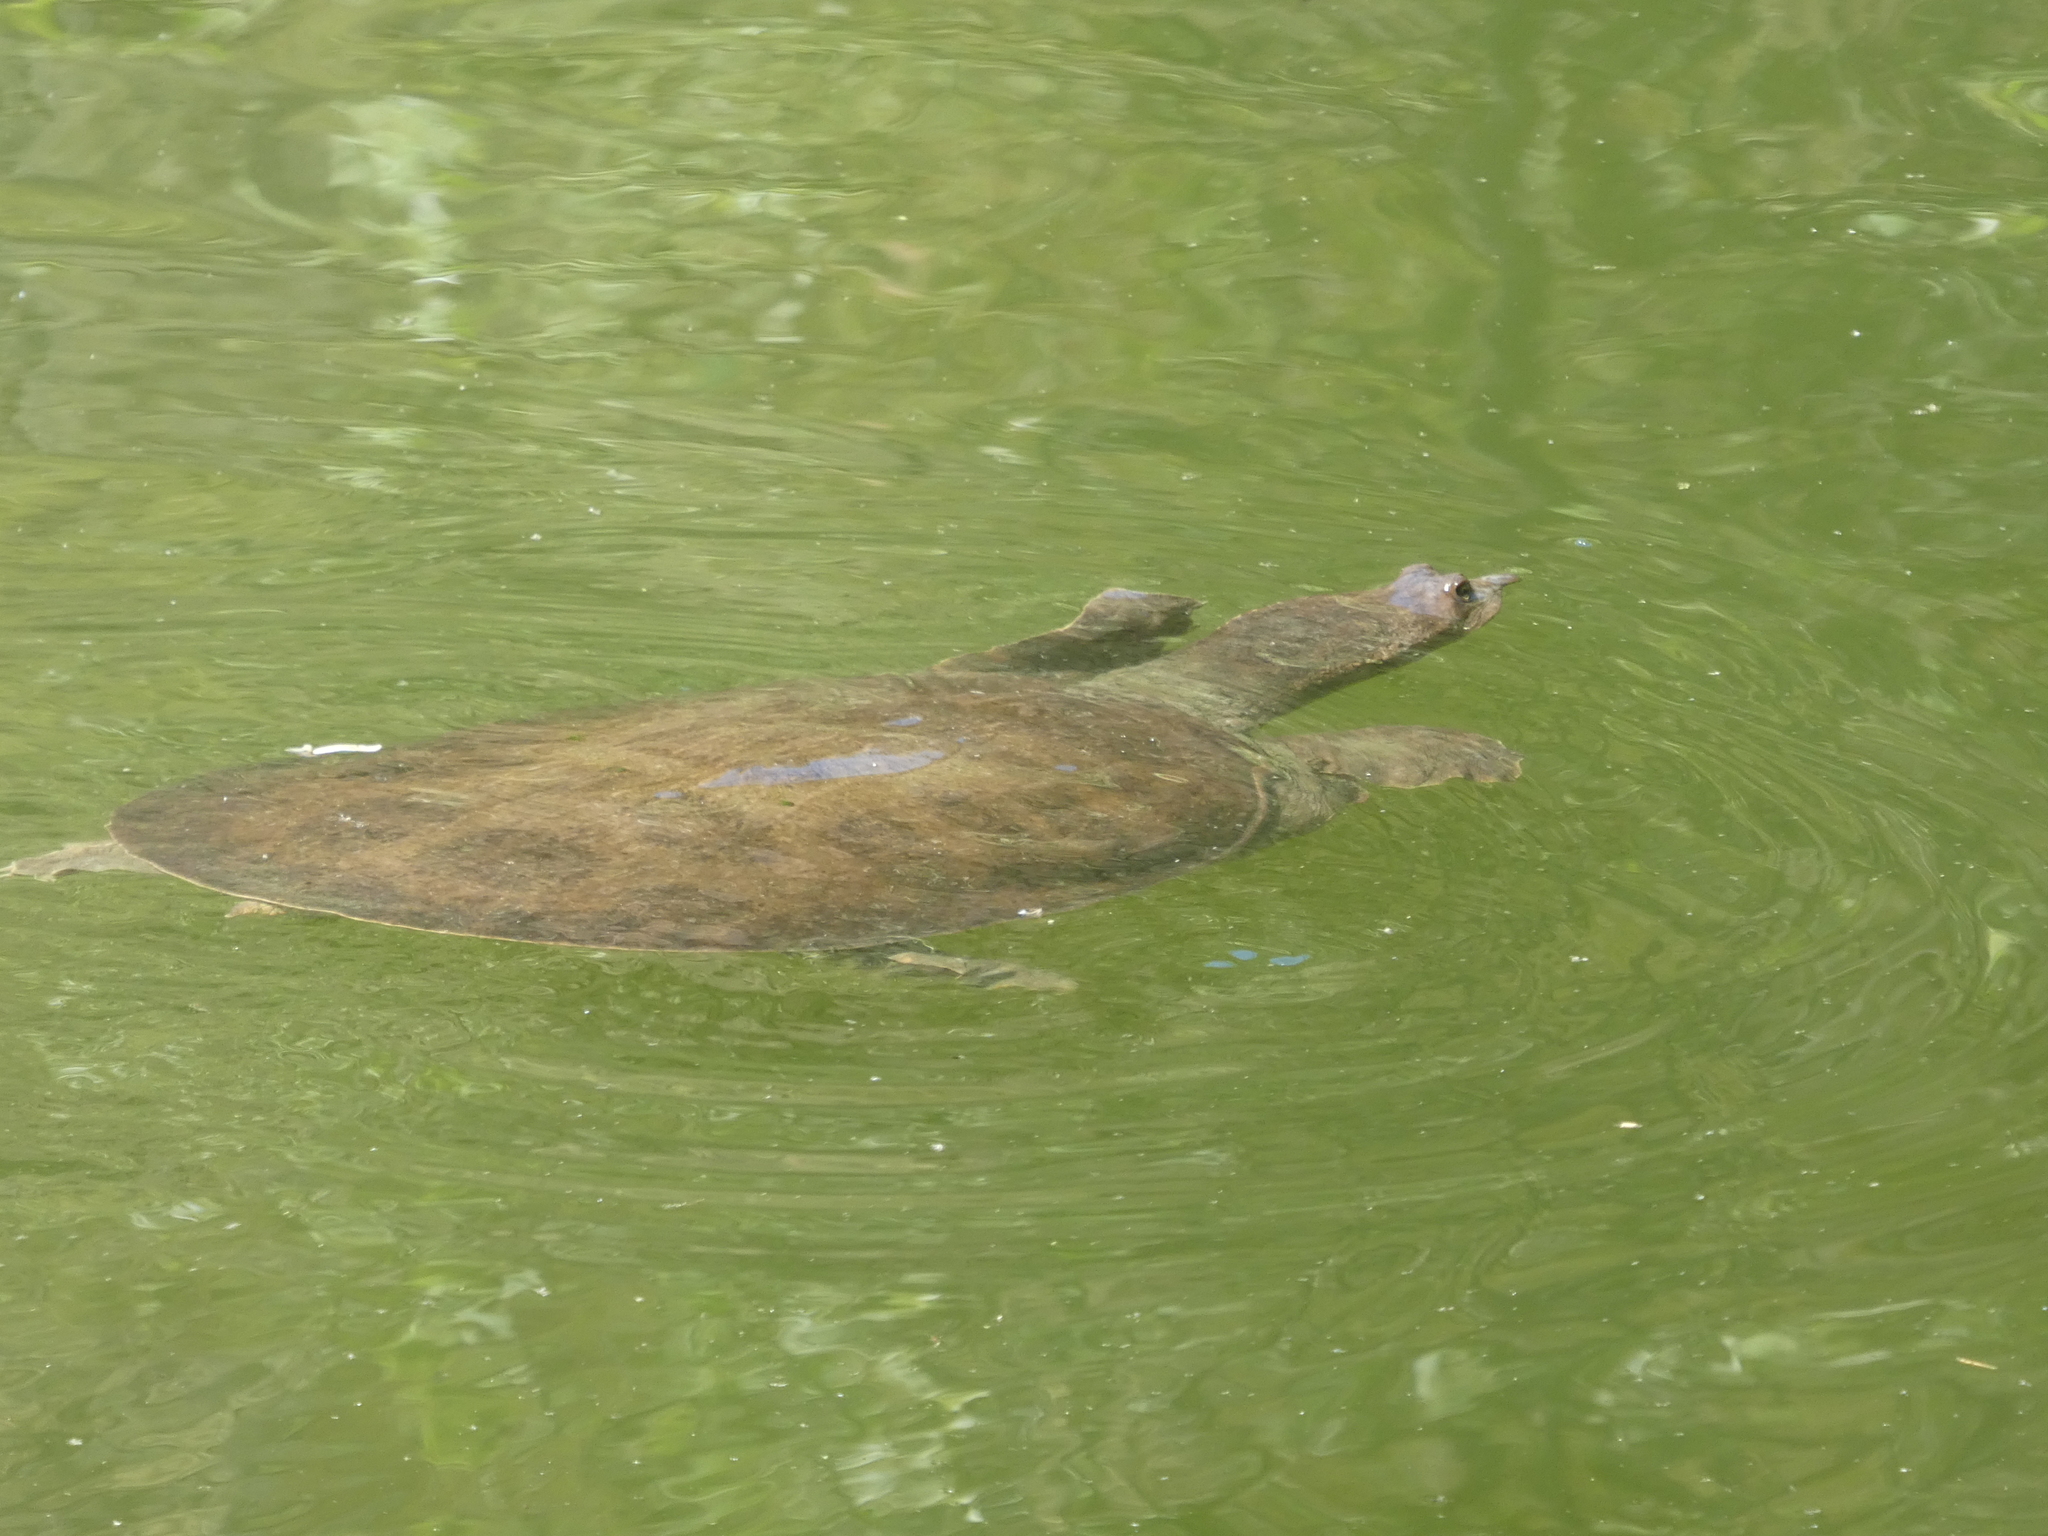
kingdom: Animalia
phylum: Chordata
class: Testudines
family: Trionychidae
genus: Apalone
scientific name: Apalone spinifera
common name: Spiny softshell turtle
